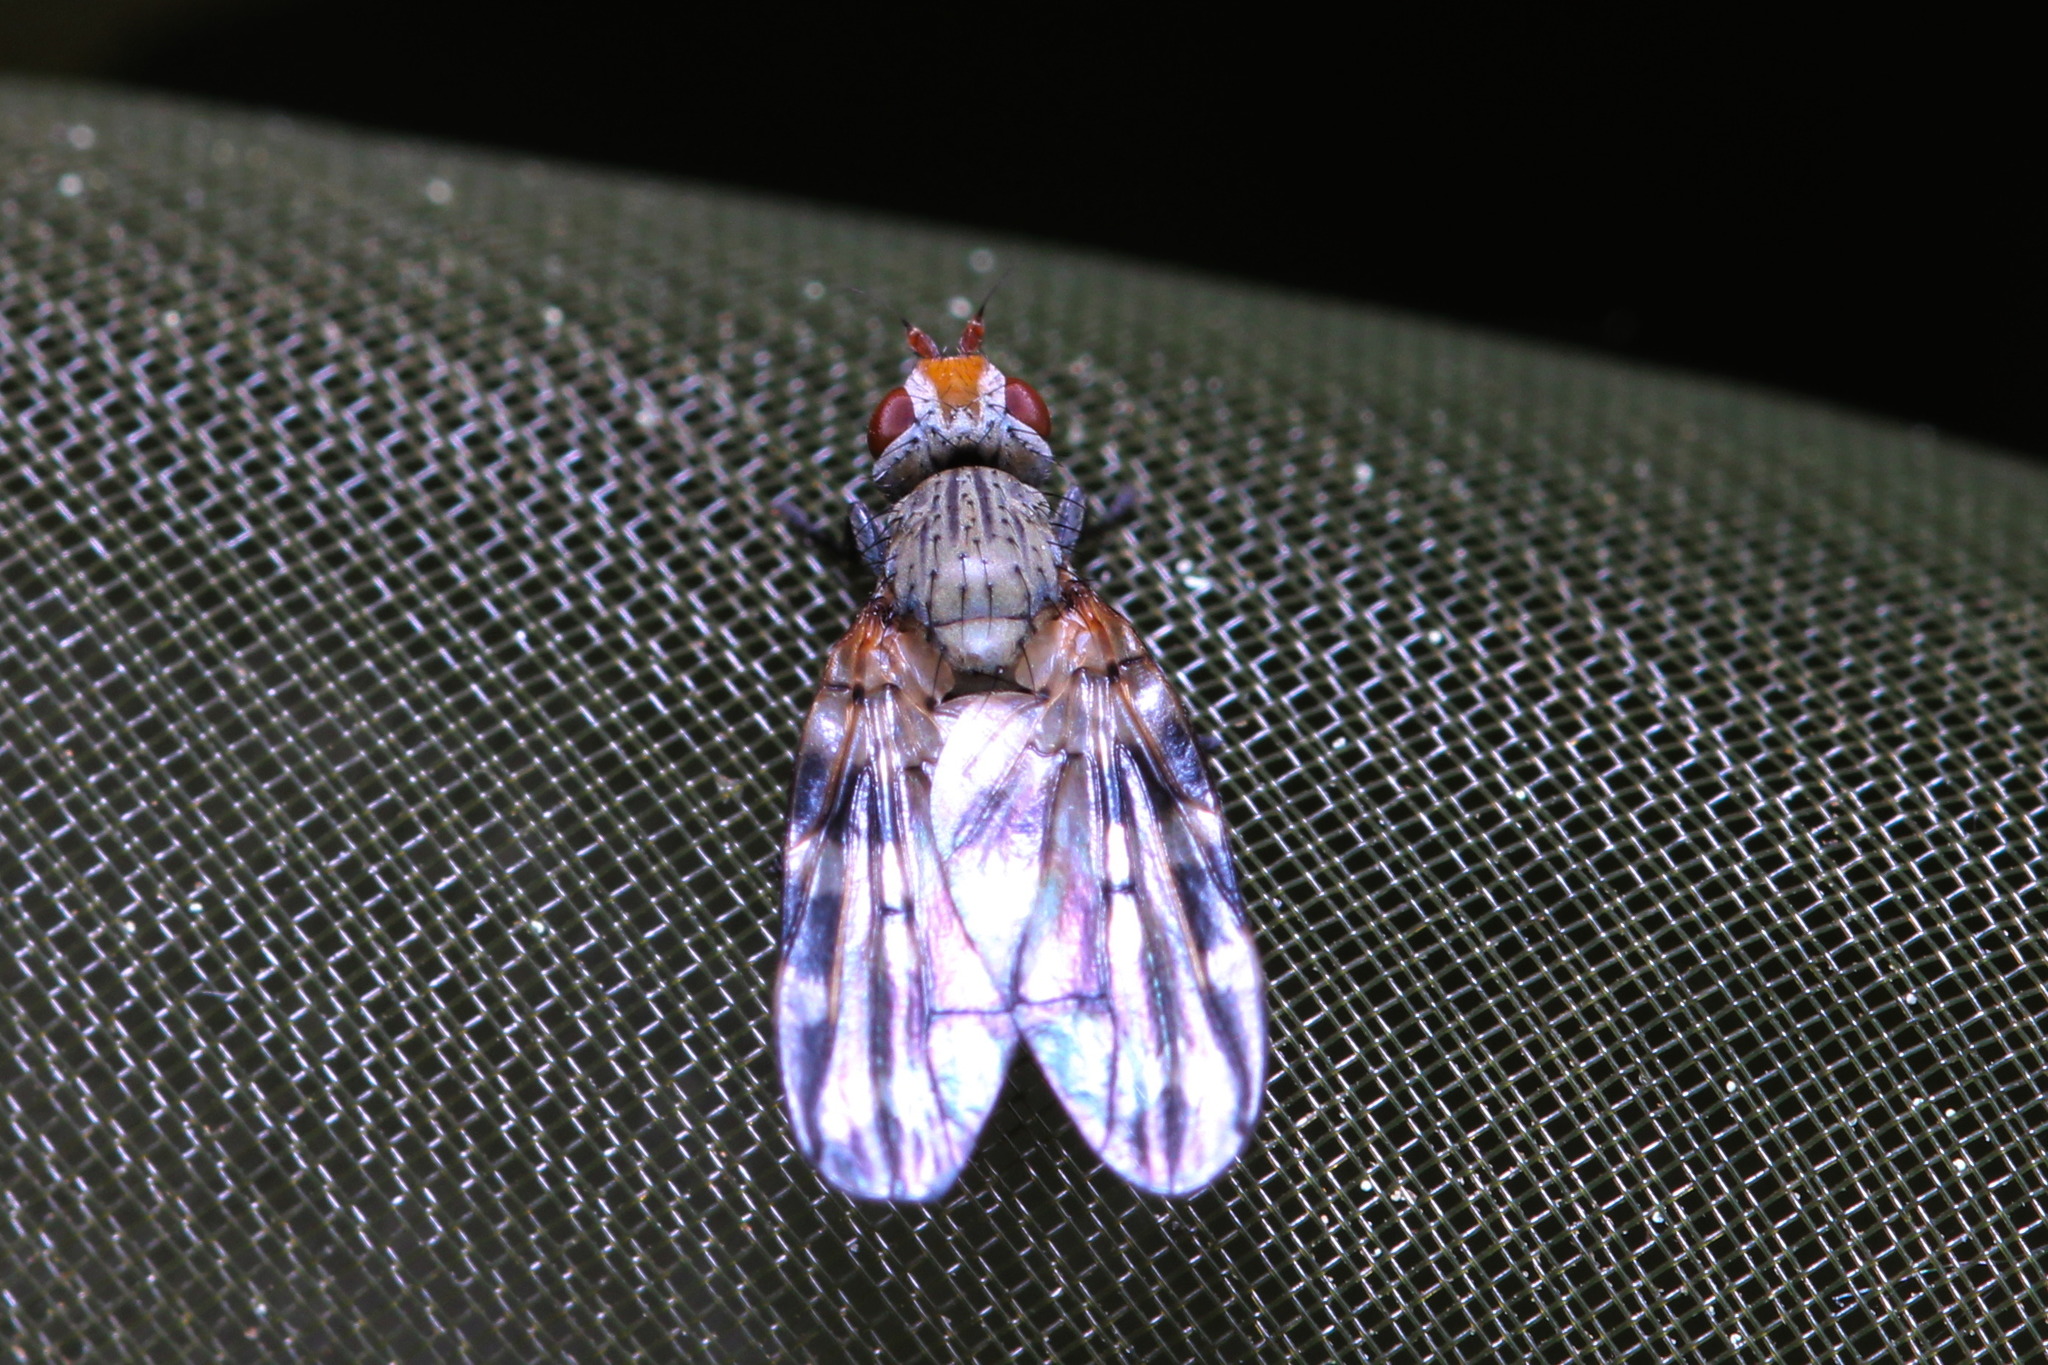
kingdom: Animalia
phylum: Arthropoda
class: Insecta
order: Diptera
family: Ulidiidae
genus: Otites
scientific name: Otites centralis
